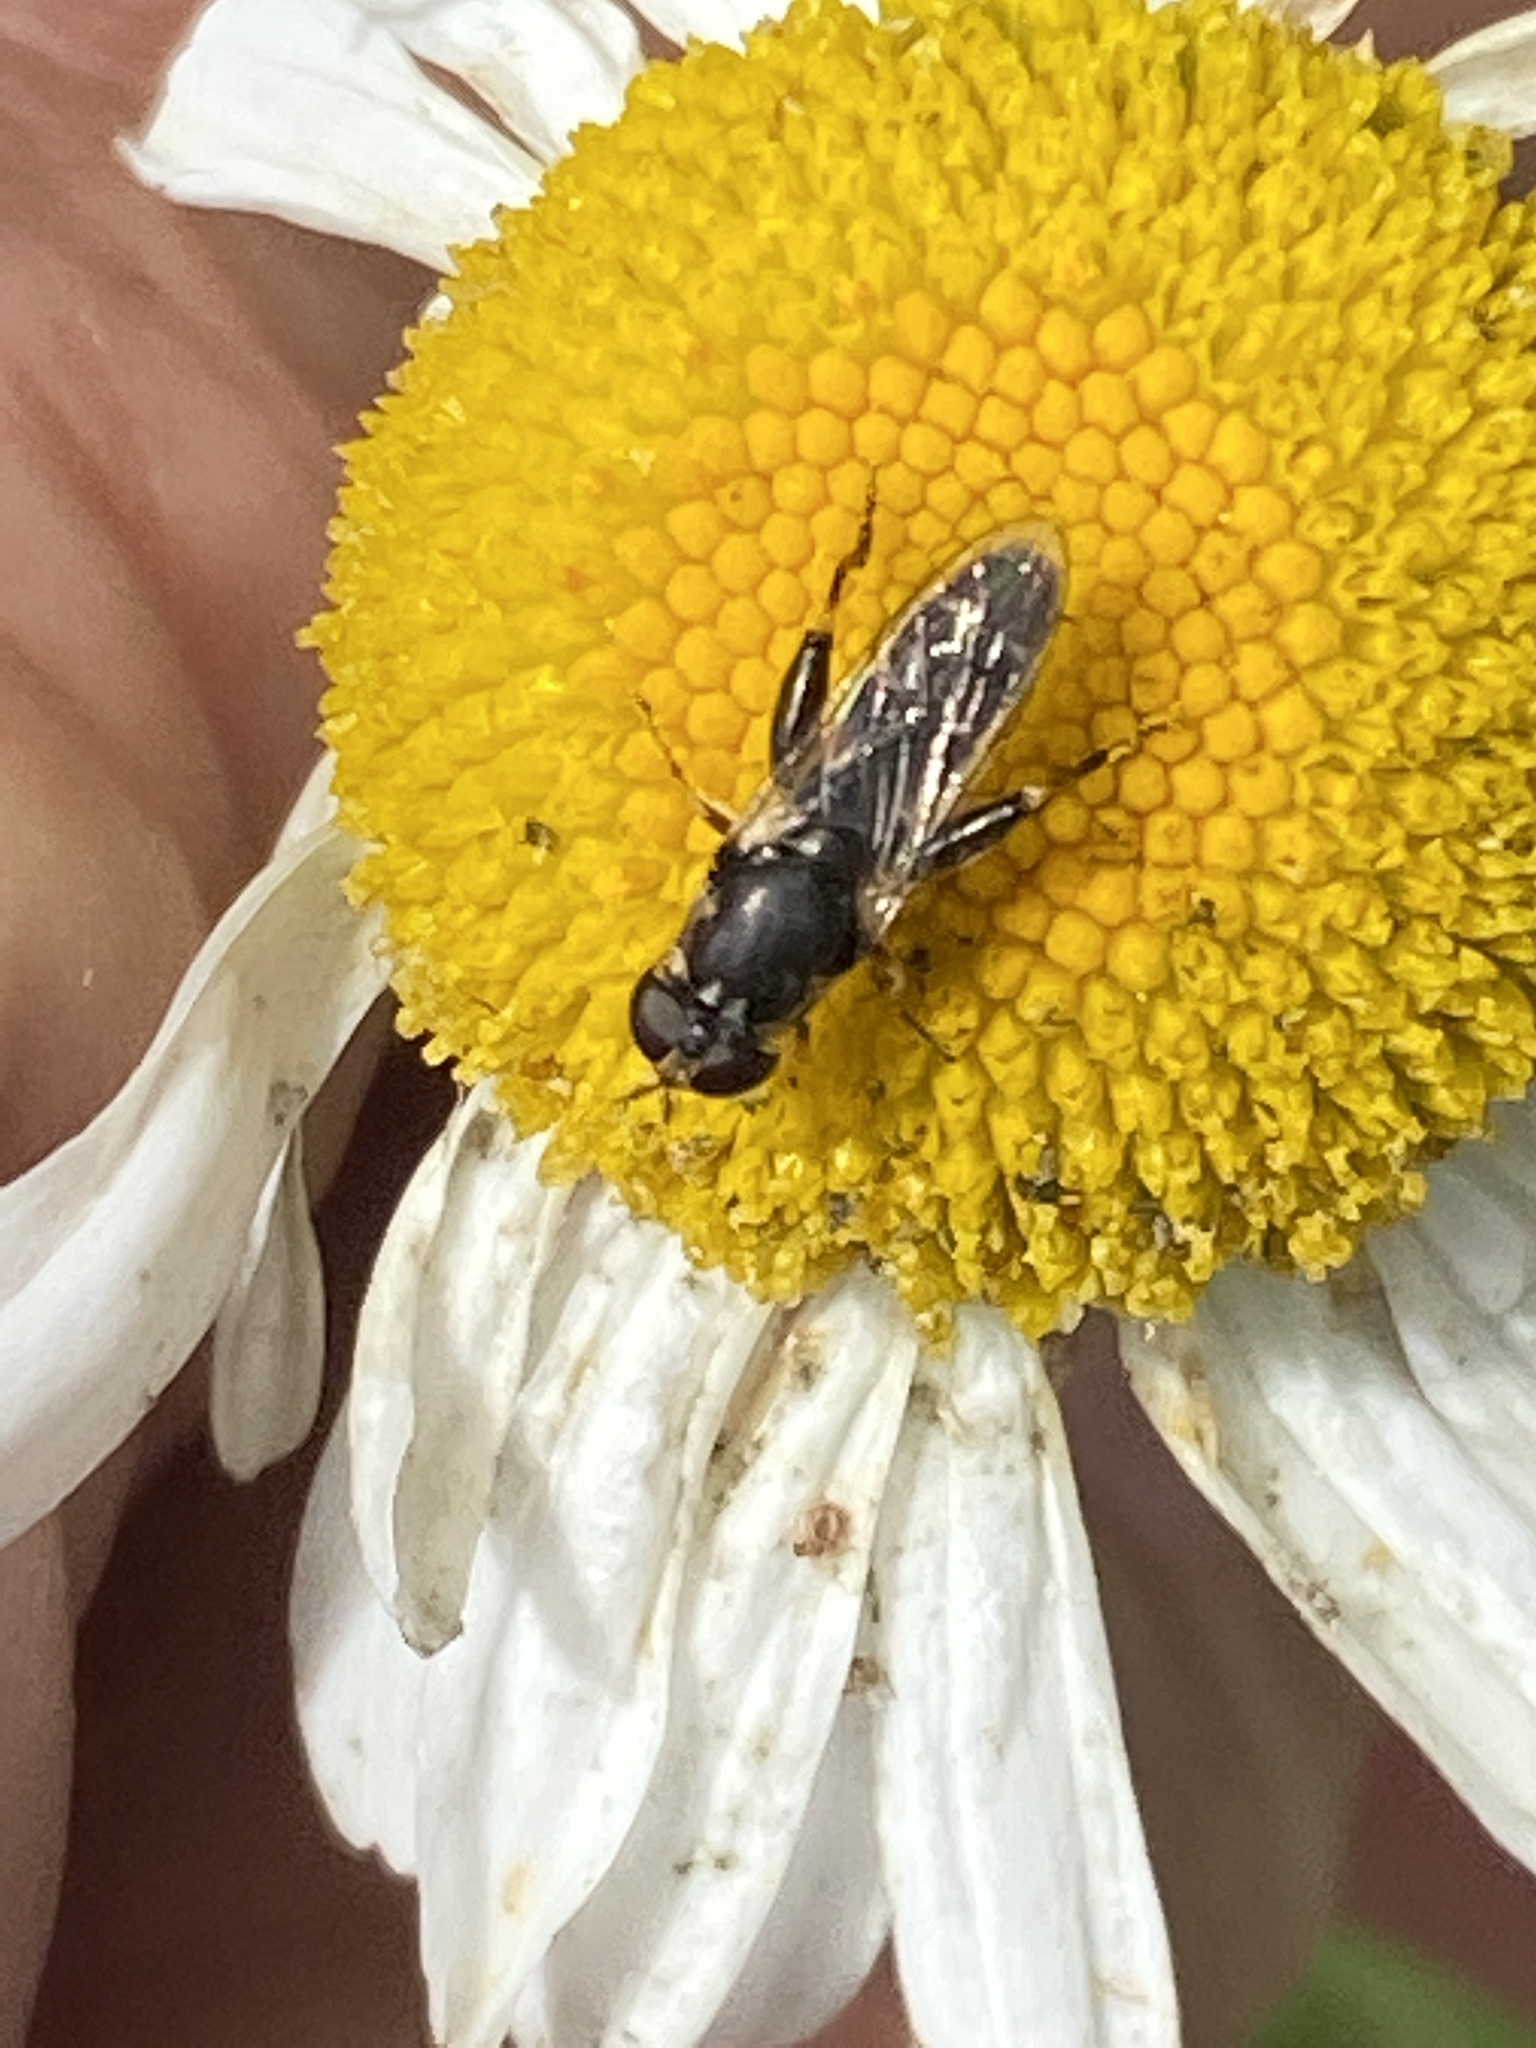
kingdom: Animalia
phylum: Arthropoda
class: Insecta
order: Diptera
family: Syrphidae
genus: Syritta
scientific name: Syritta pipiens
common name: Hover fly
